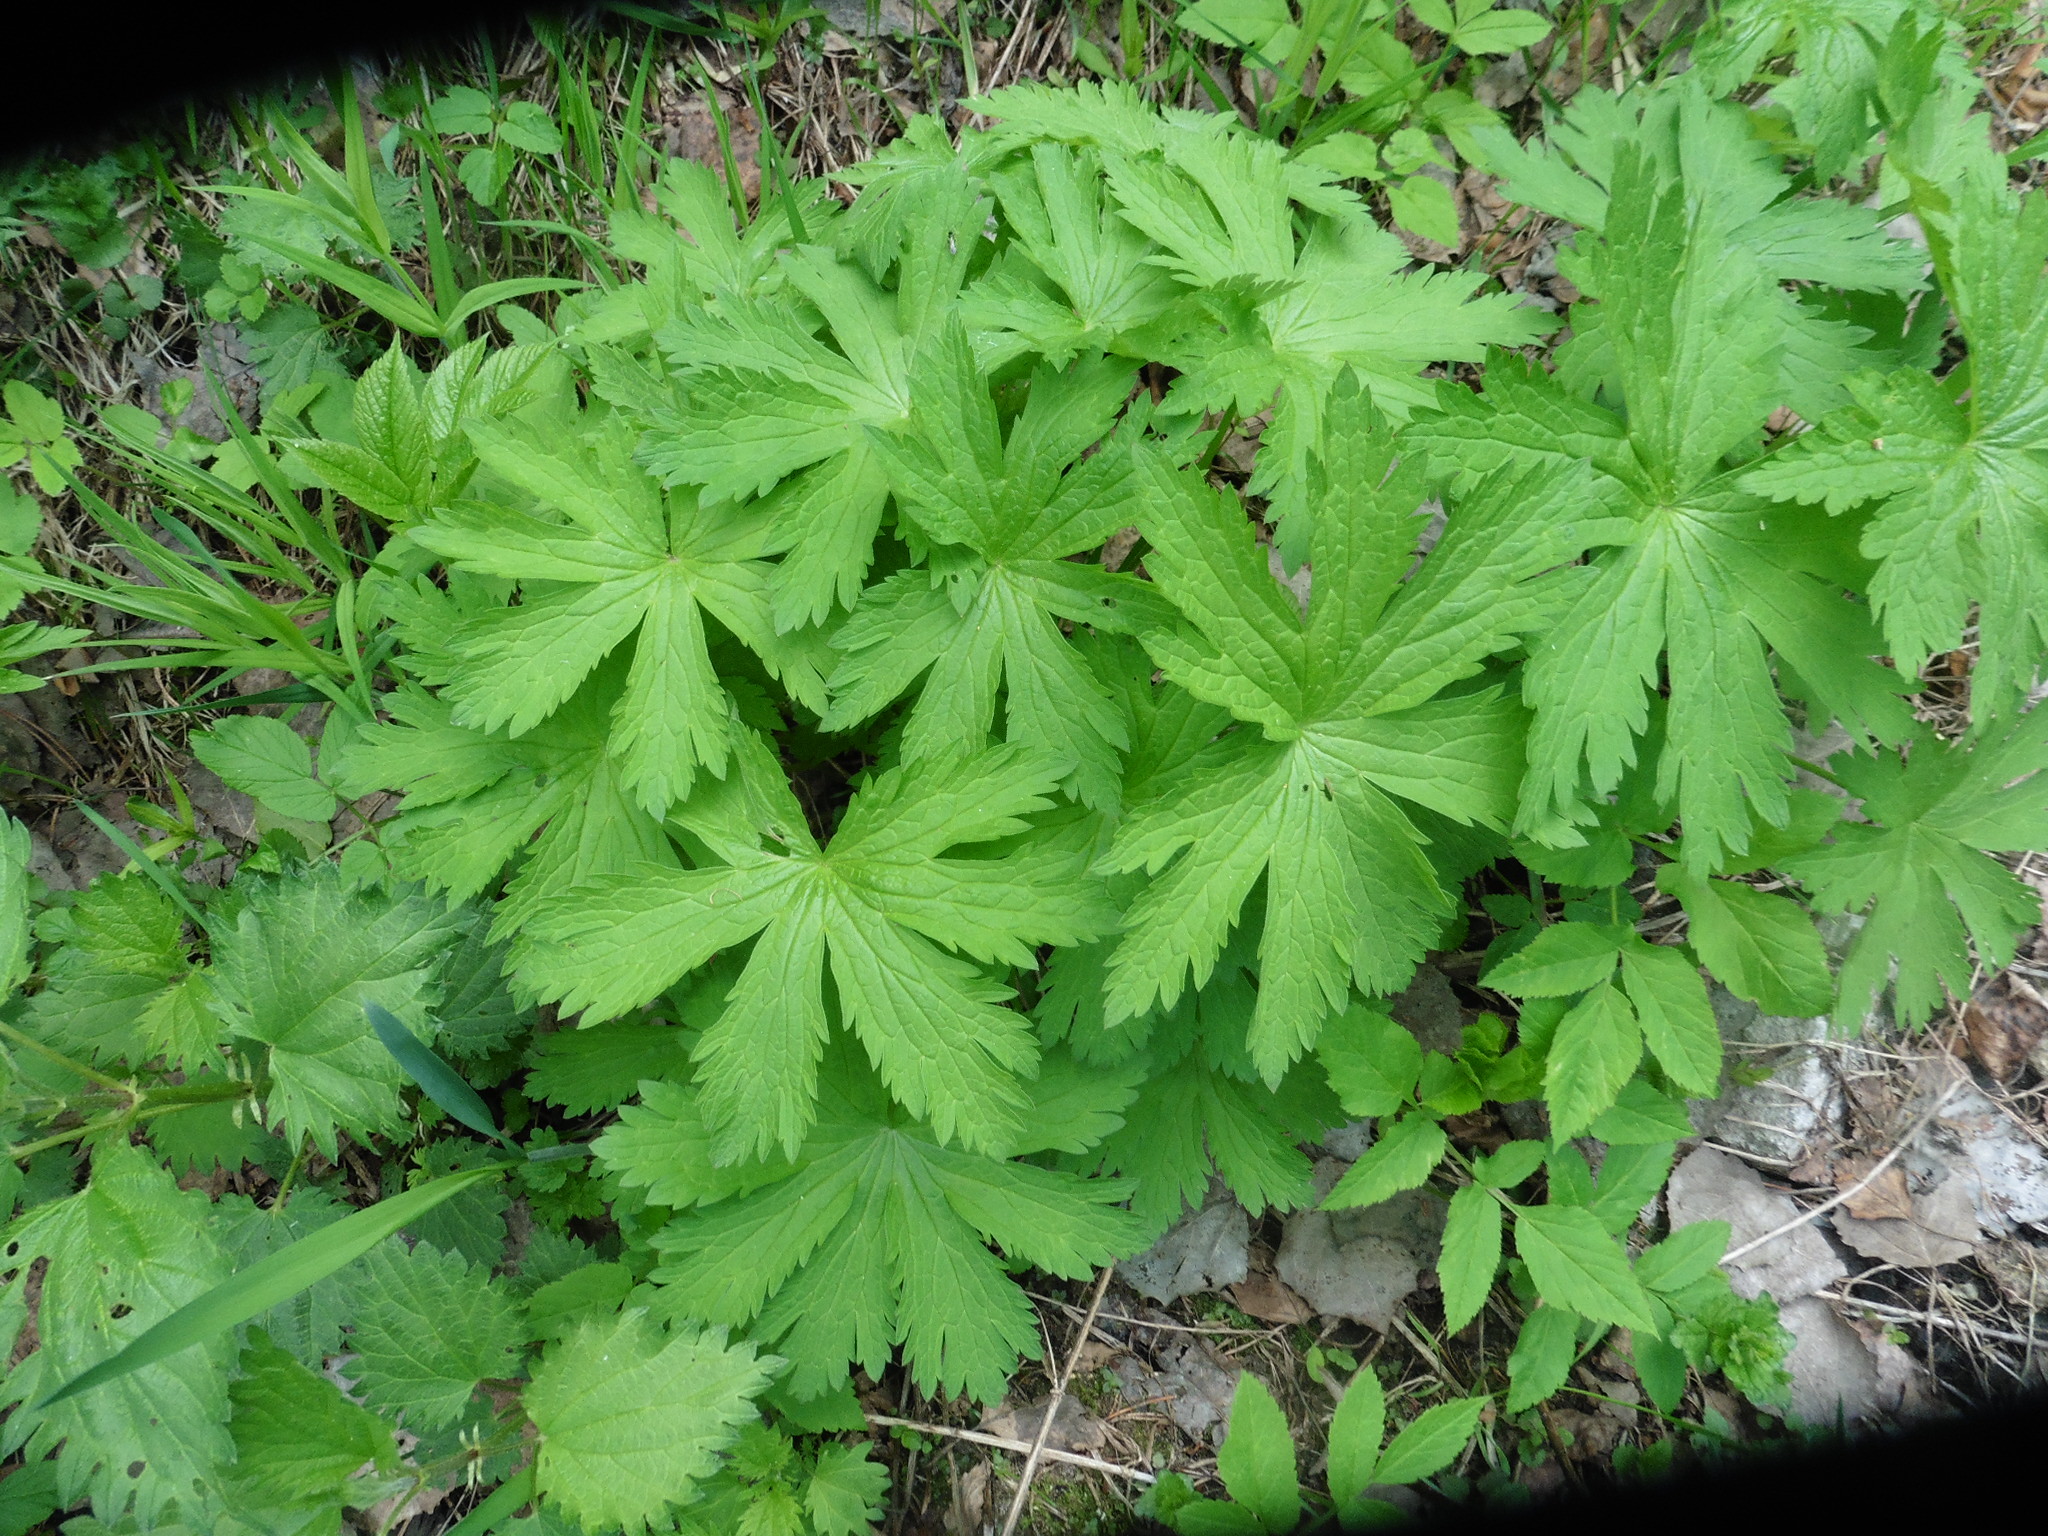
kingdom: Plantae
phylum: Tracheophyta
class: Magnoliopsida
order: Geraniales
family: Geraniaceae
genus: Geranium
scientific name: Geranium sylvaticum
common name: Wood crane's-bill
